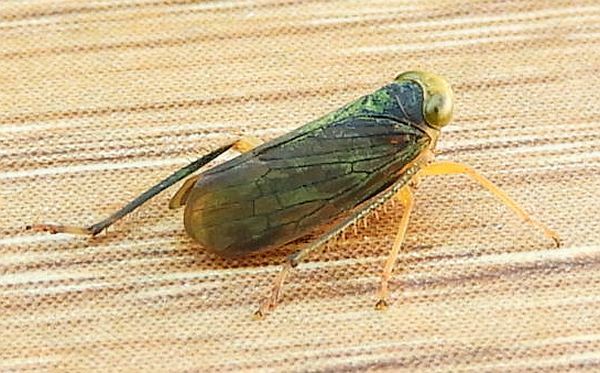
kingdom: Animalia
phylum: Arthropoda
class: Insecta
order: Hemiptera
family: Cicadellidae
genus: Jikradia
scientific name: Jikradia olitoria
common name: Coppery leafhopper
